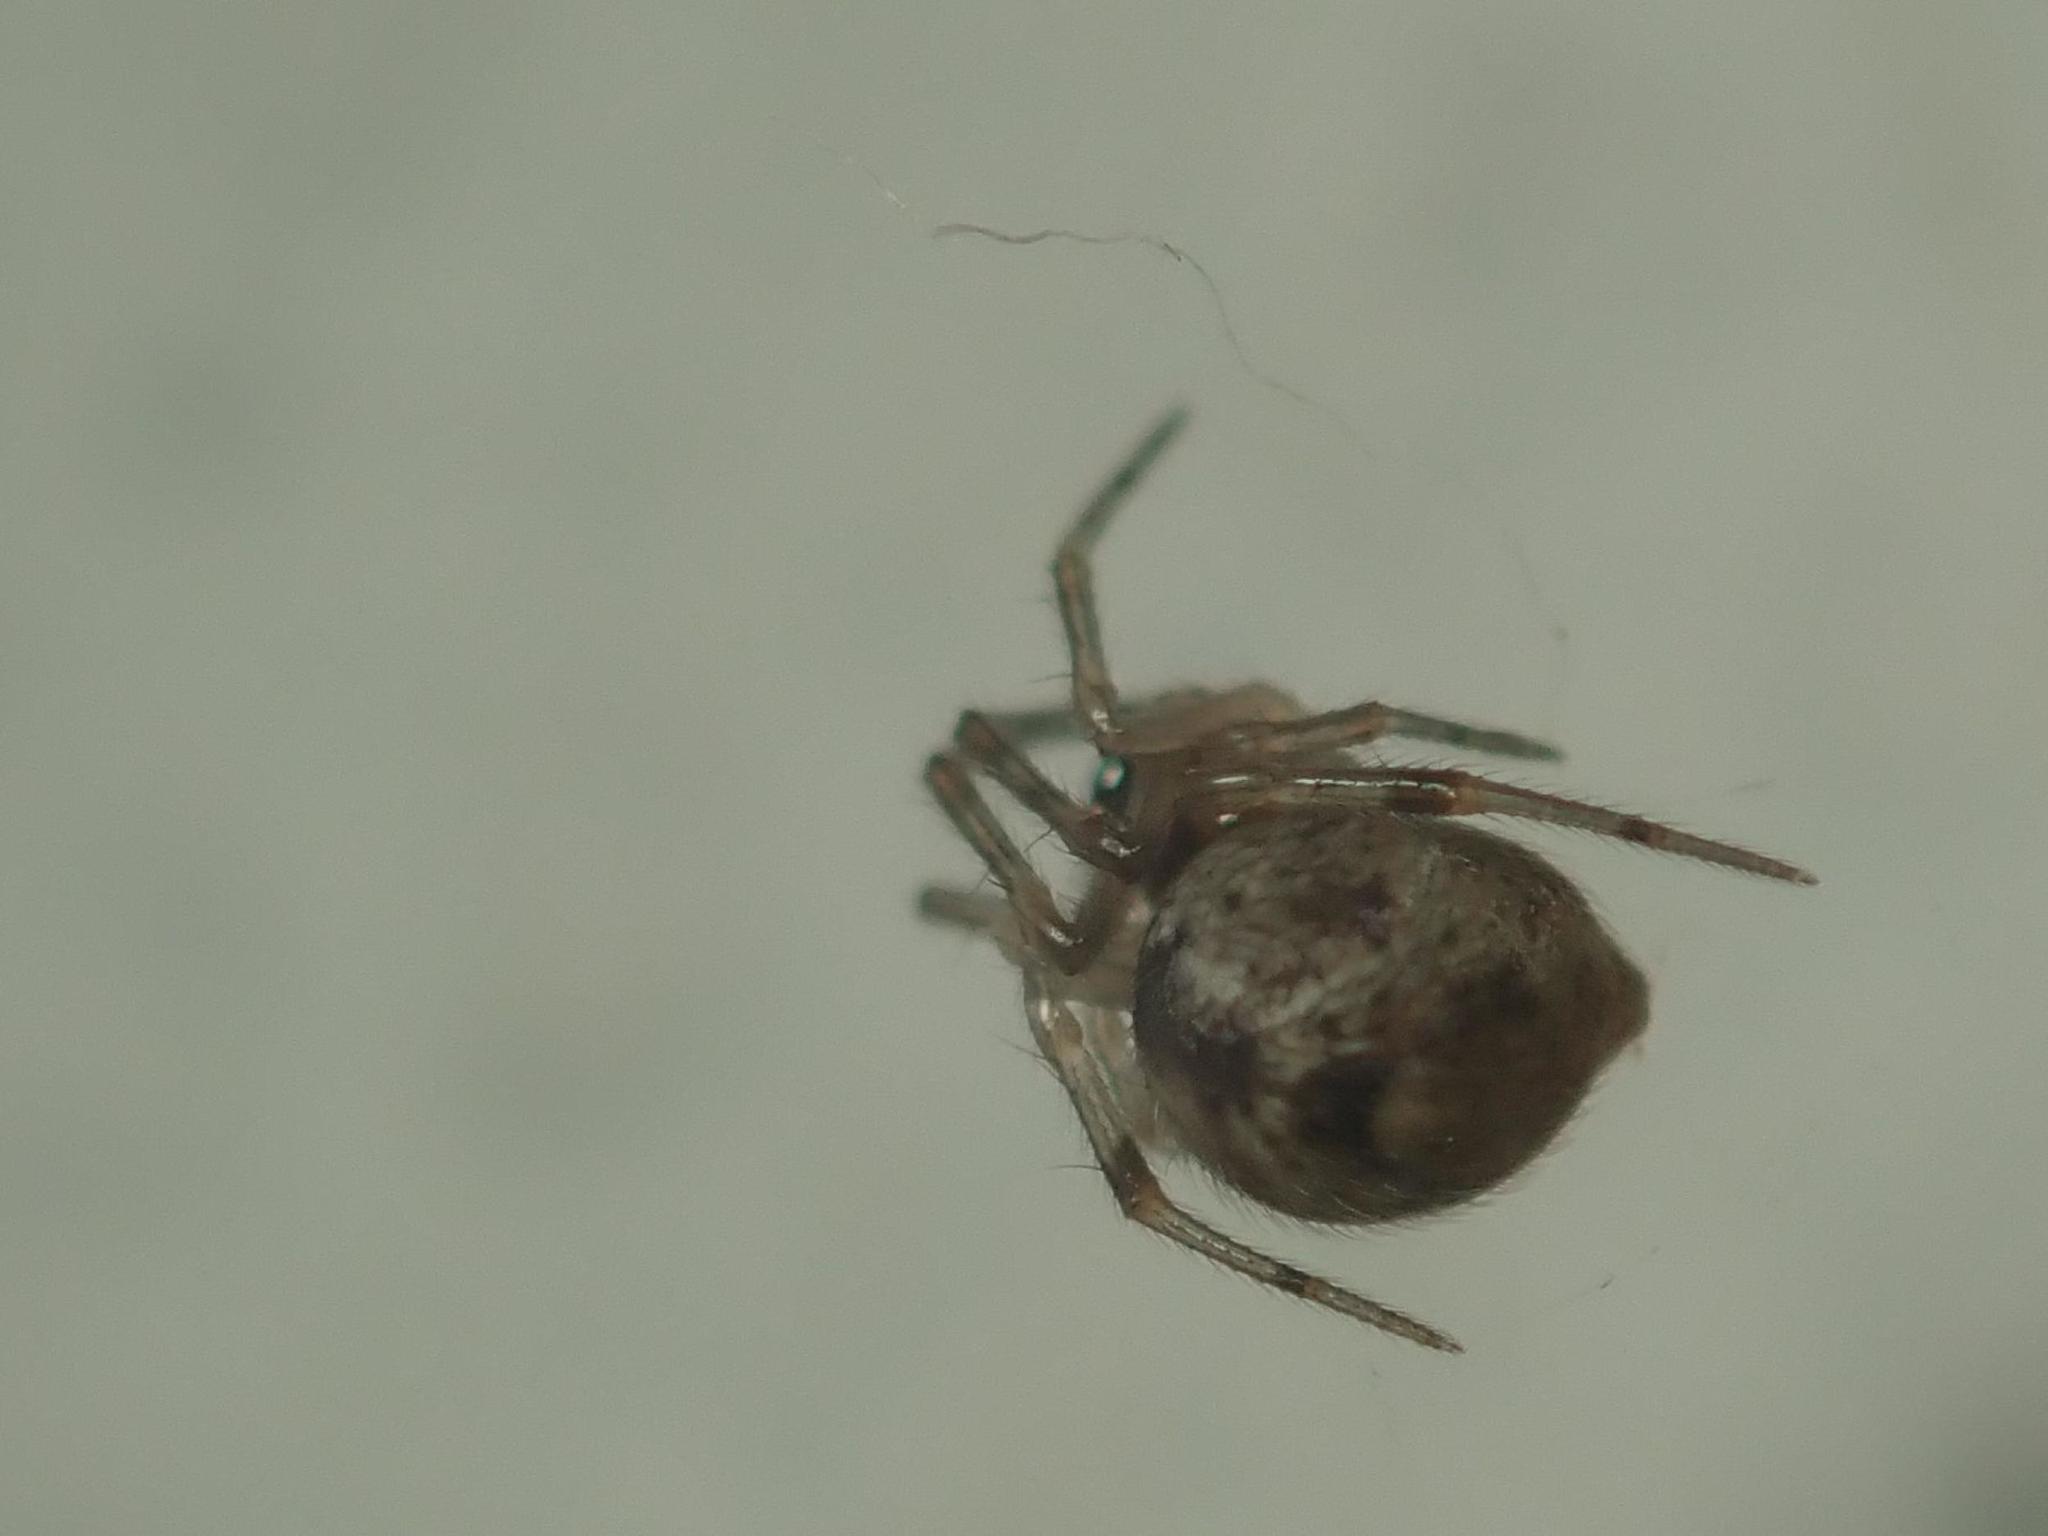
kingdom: Animalia
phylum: Arthropoda
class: Arachnida
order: Araneae
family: Theridiidae
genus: Parasteatoda
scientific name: Parasteatoda tepidariorum
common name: Common house spider
